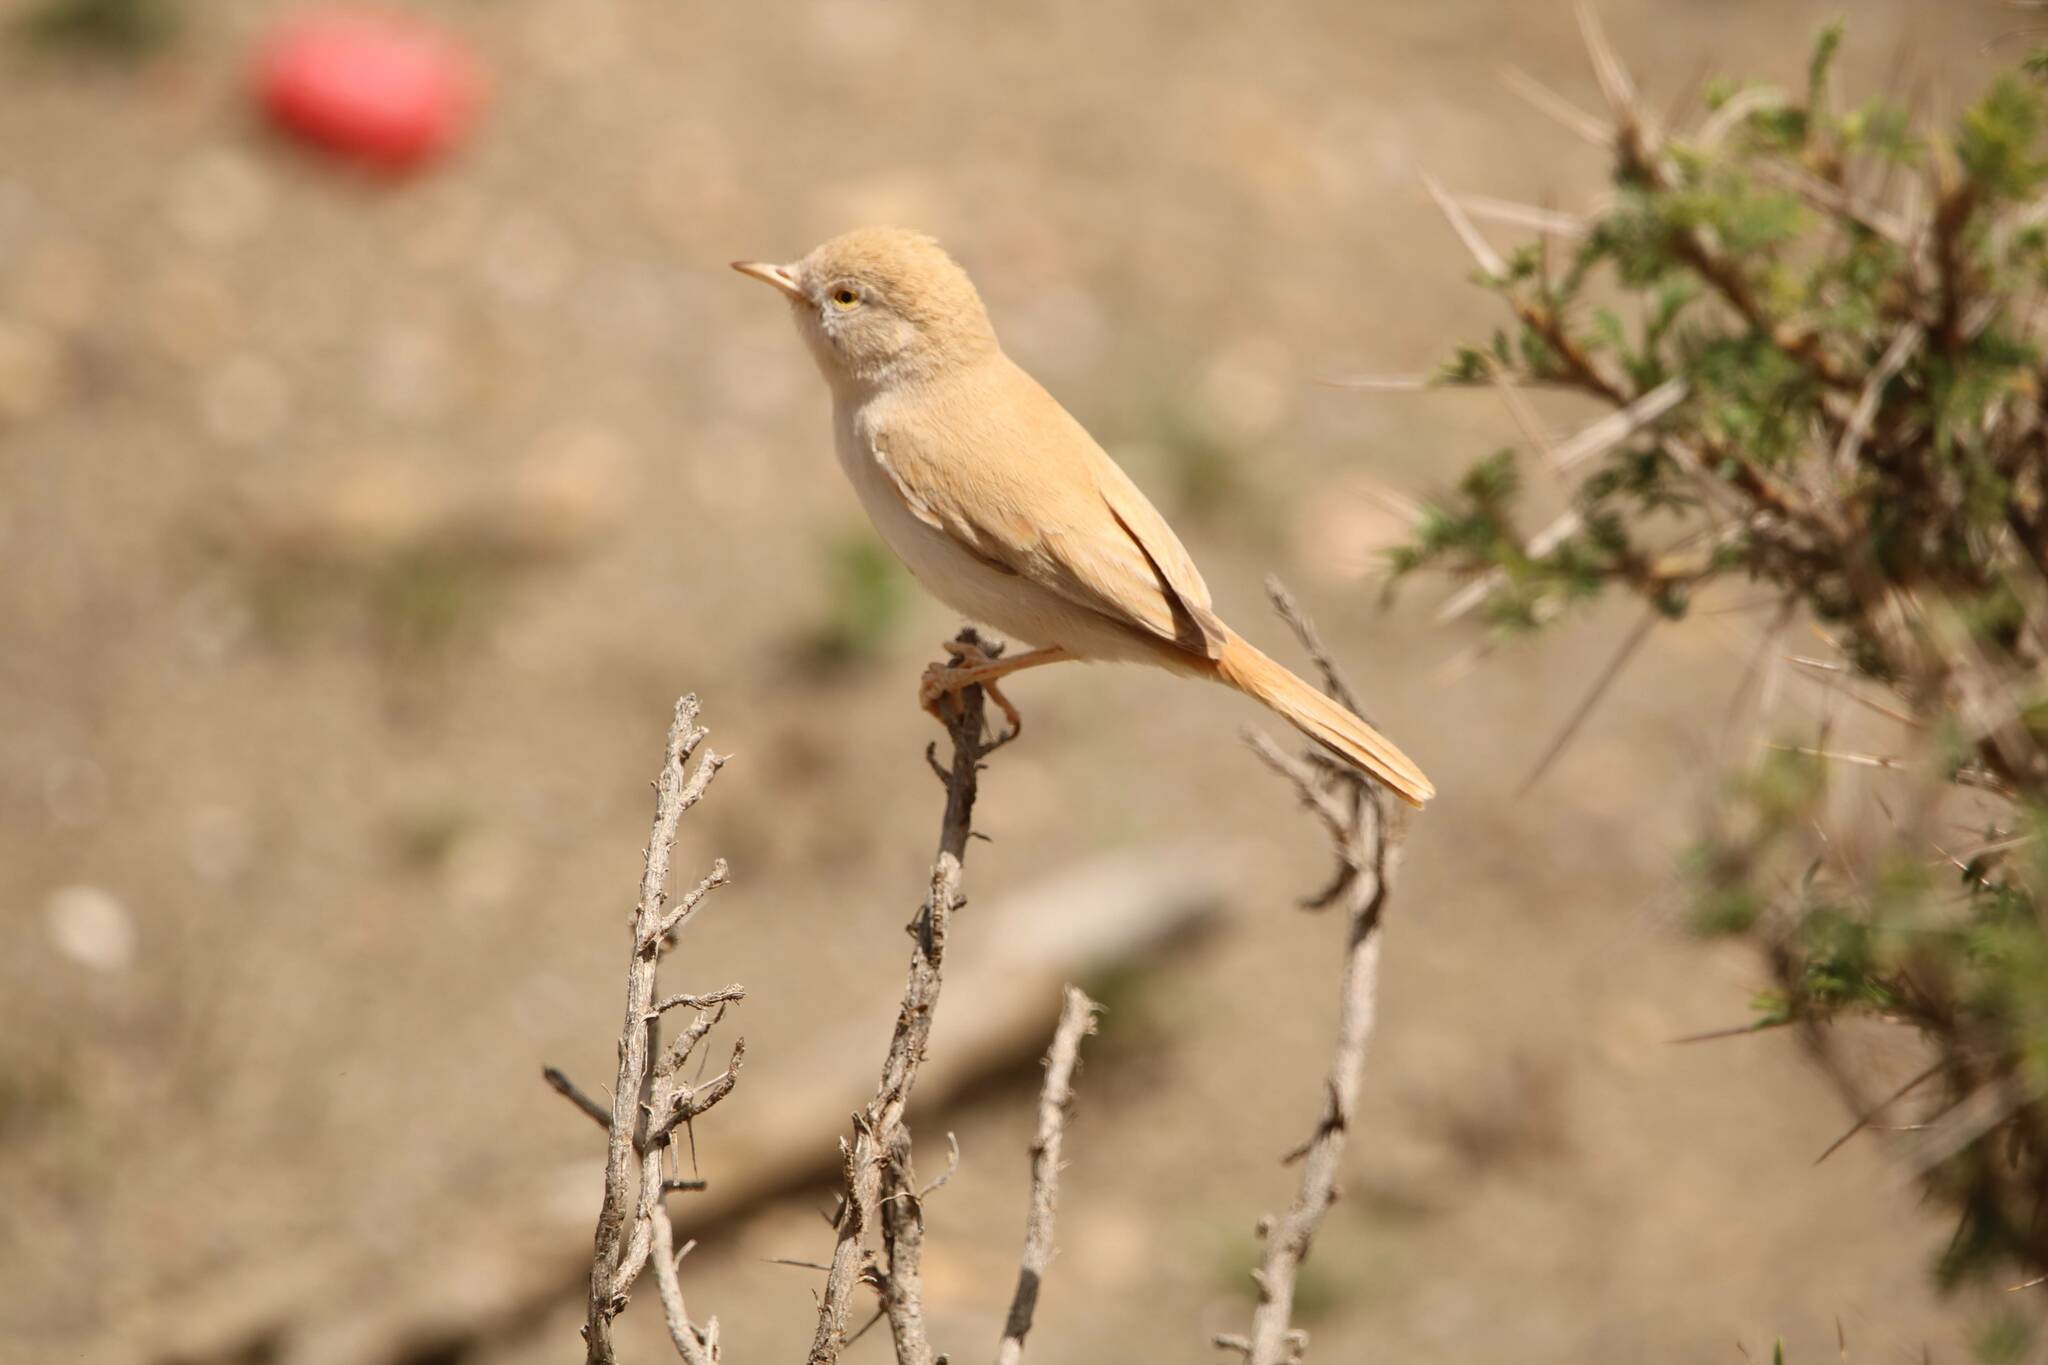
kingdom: Animalia
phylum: Chordata
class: Aves
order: Passeriformes
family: Sylviidae
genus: Sylvia
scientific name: Sylvia deserti
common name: African desert warbler
